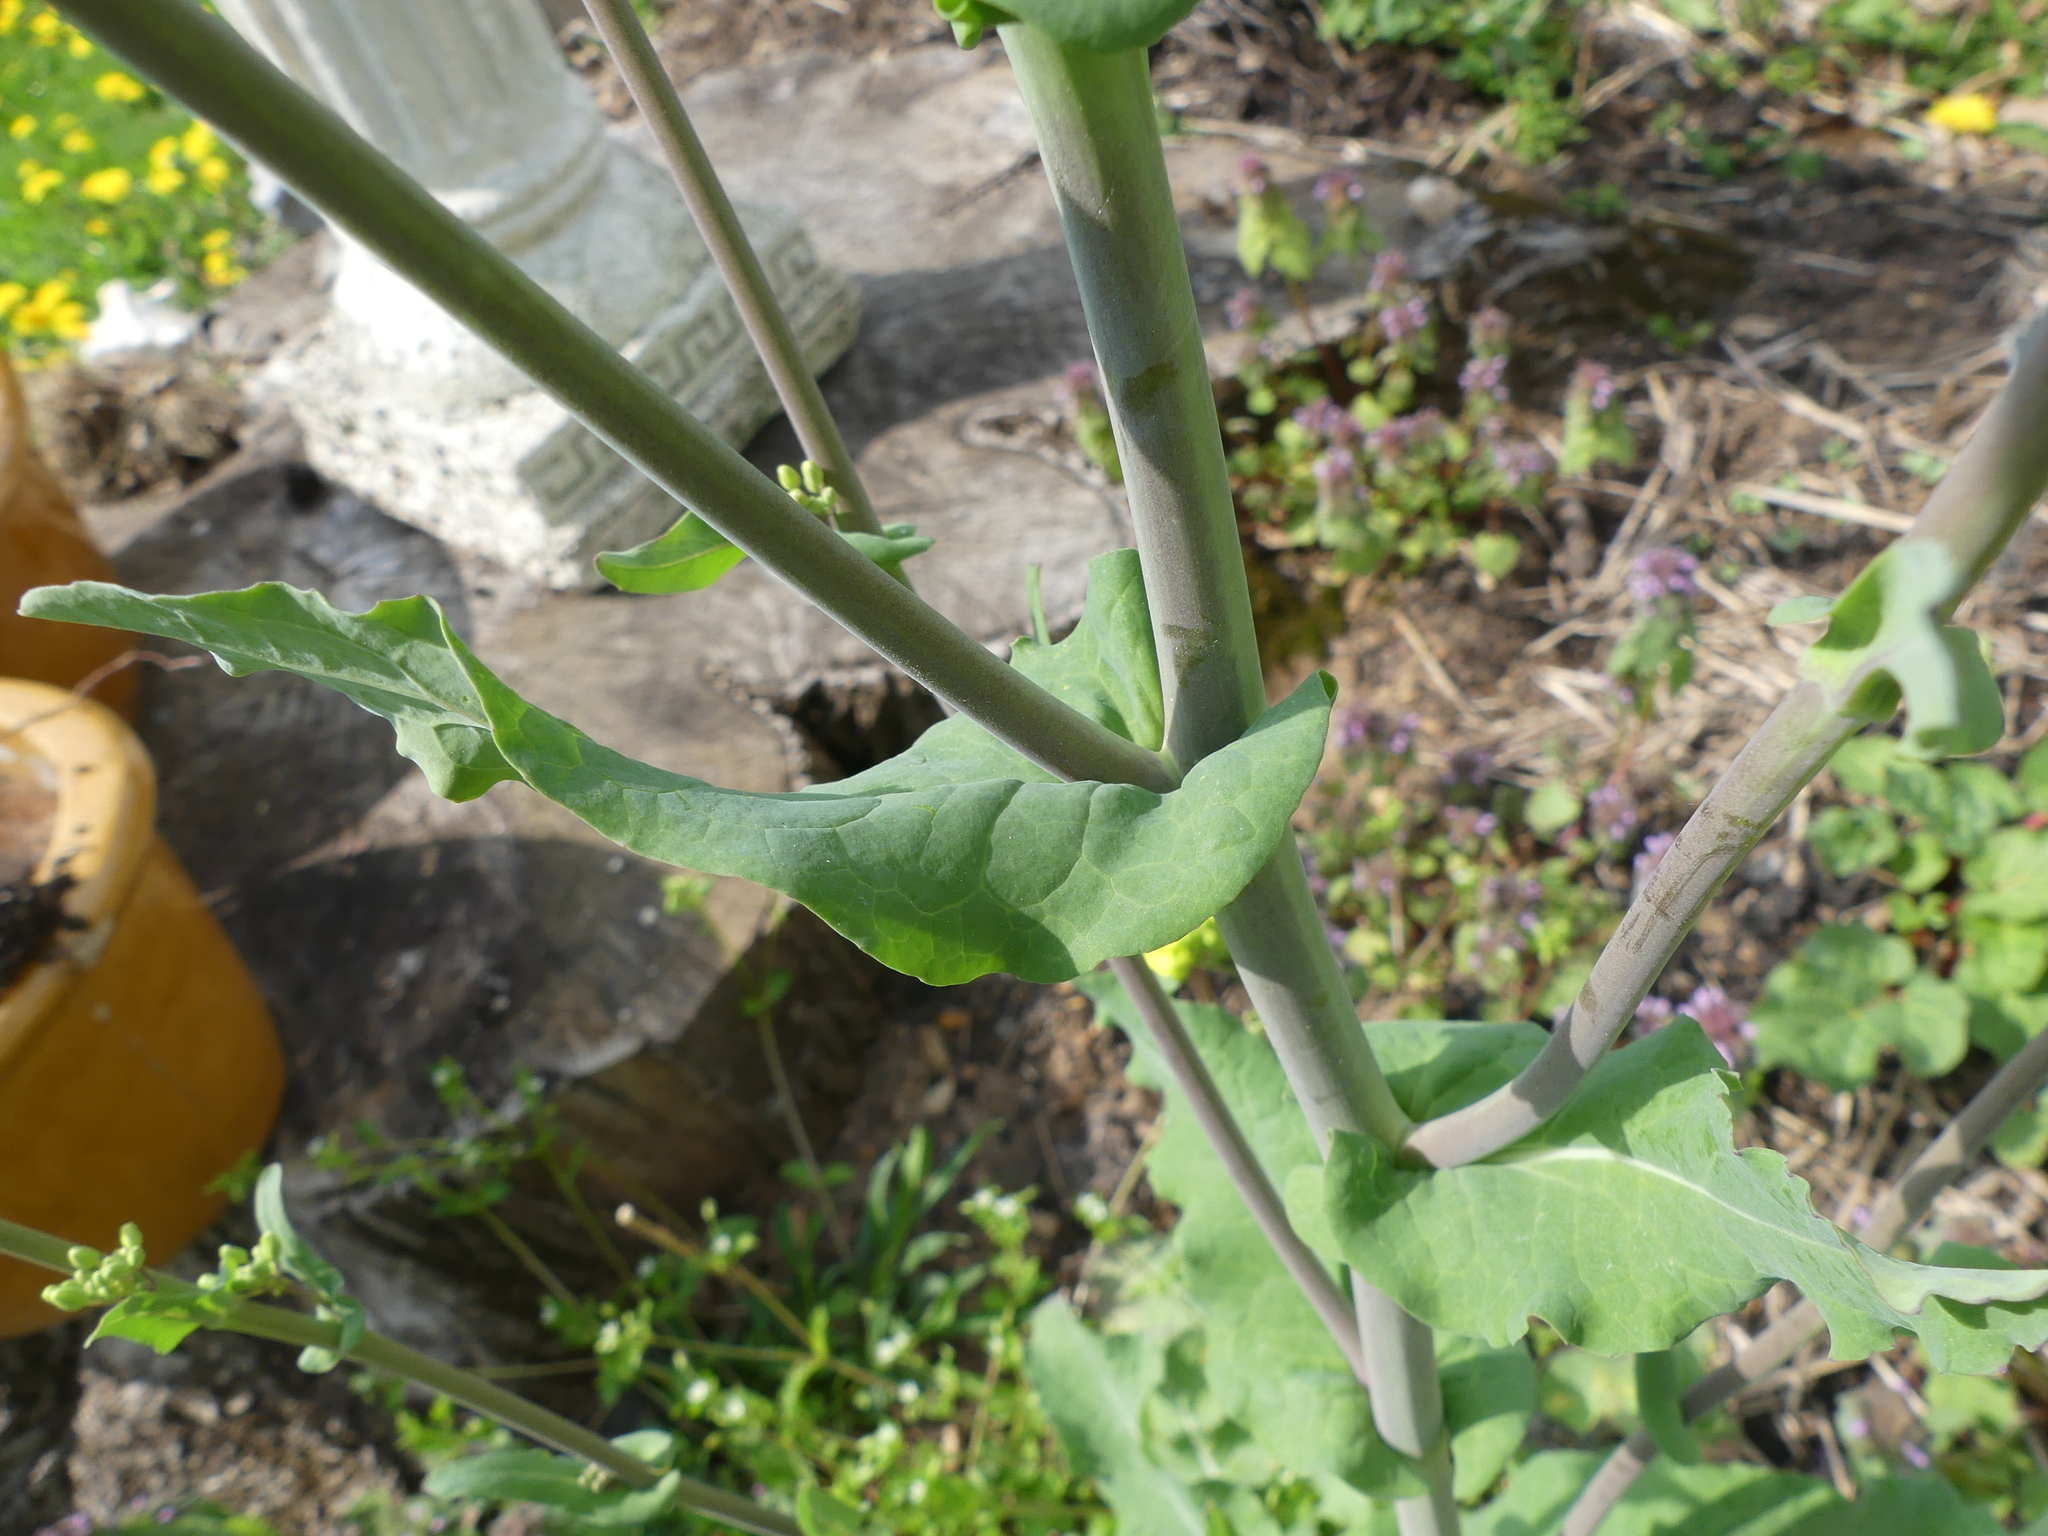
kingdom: Plantae
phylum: Tracheophyta
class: Magnoliopsida
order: Brassicales
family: Brassicaceae
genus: Brassica
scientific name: Brassica rapa
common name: Field mustard
